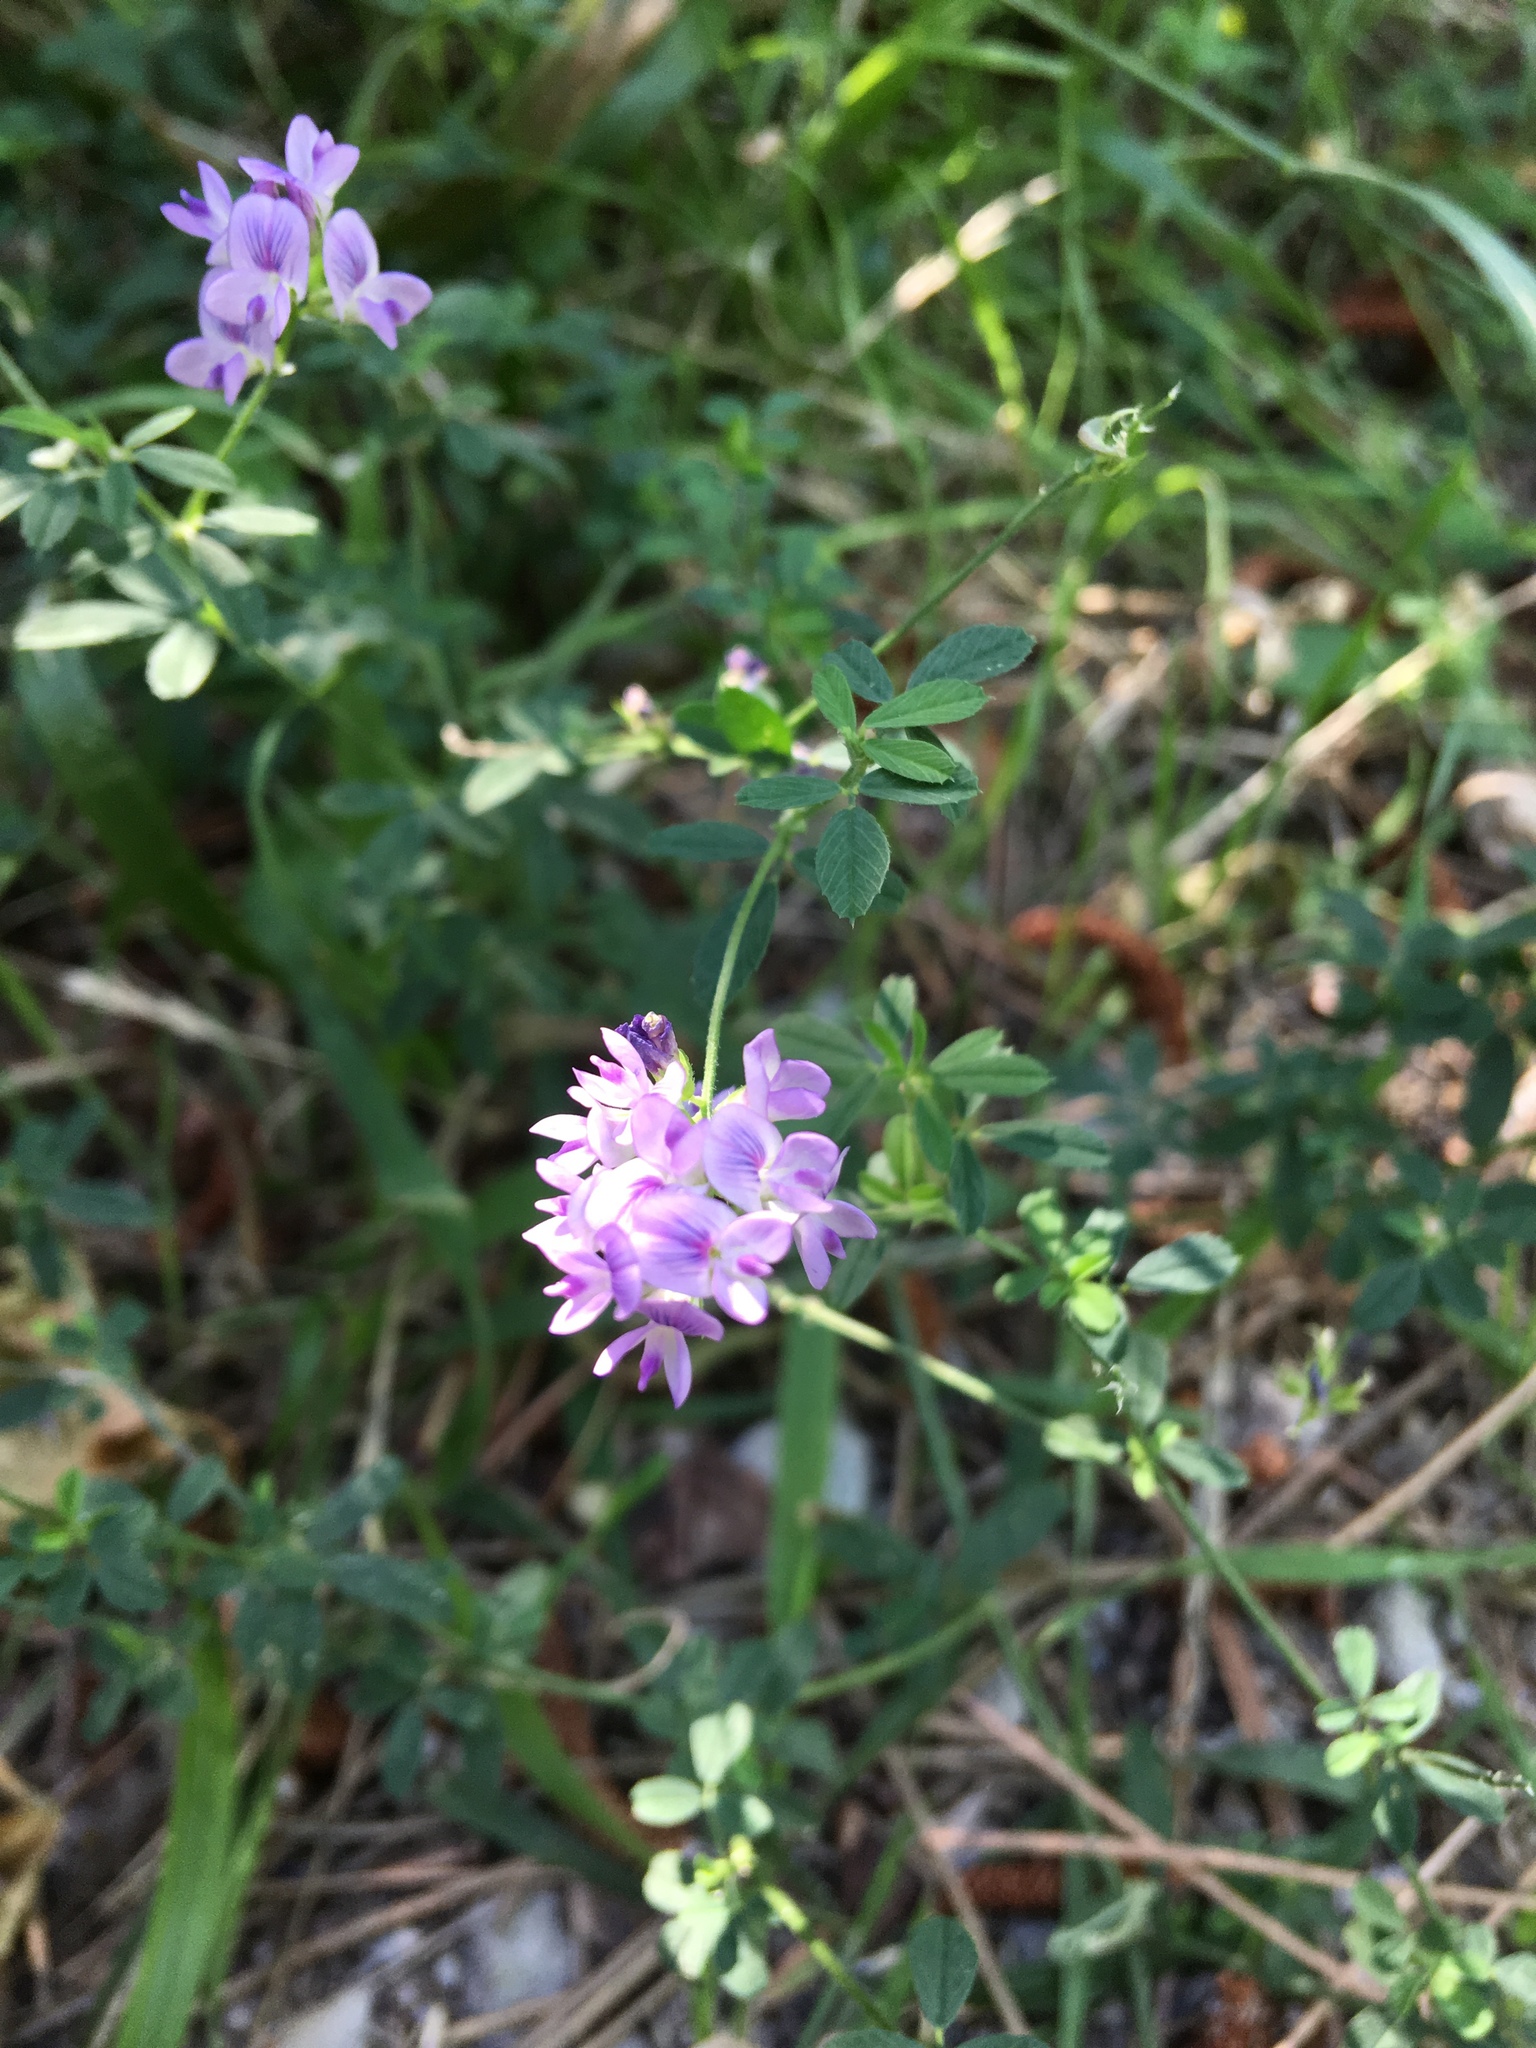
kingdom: Plantae
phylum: Tracheophyta
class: Magnoliopsida
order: Fabales
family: Fabaceae
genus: Medicago
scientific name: Medicago sativa
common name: Alfalfa
